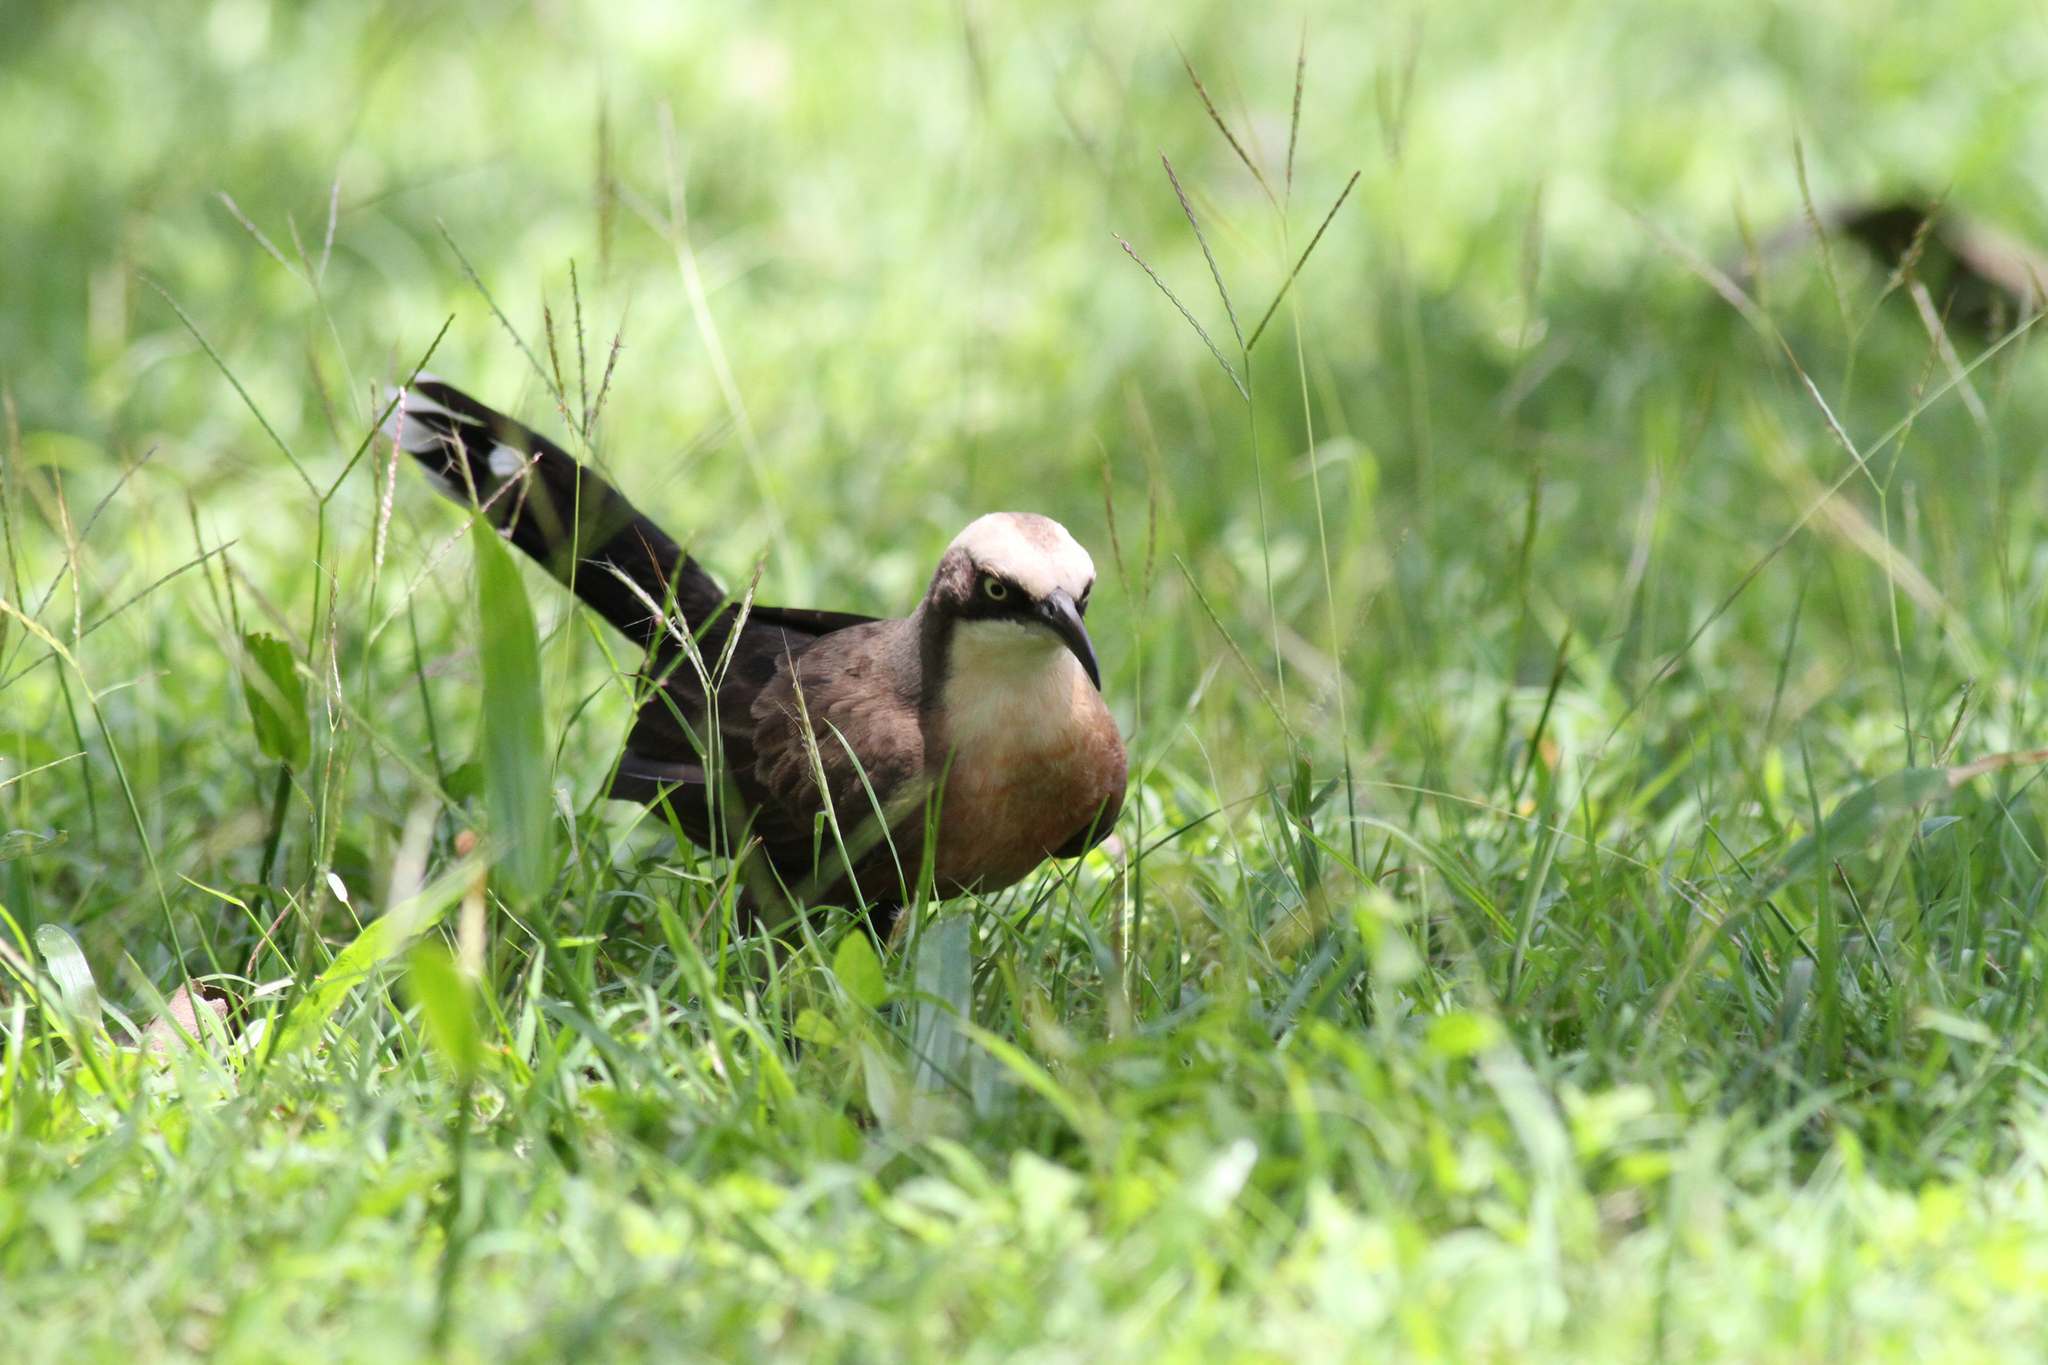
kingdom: Animalia
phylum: Chordata
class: Aves
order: Passeriformes
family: Pomatostomidae
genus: Pomatostomus
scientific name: Pomatostomus temporalis
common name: Grey-crowned babbler
